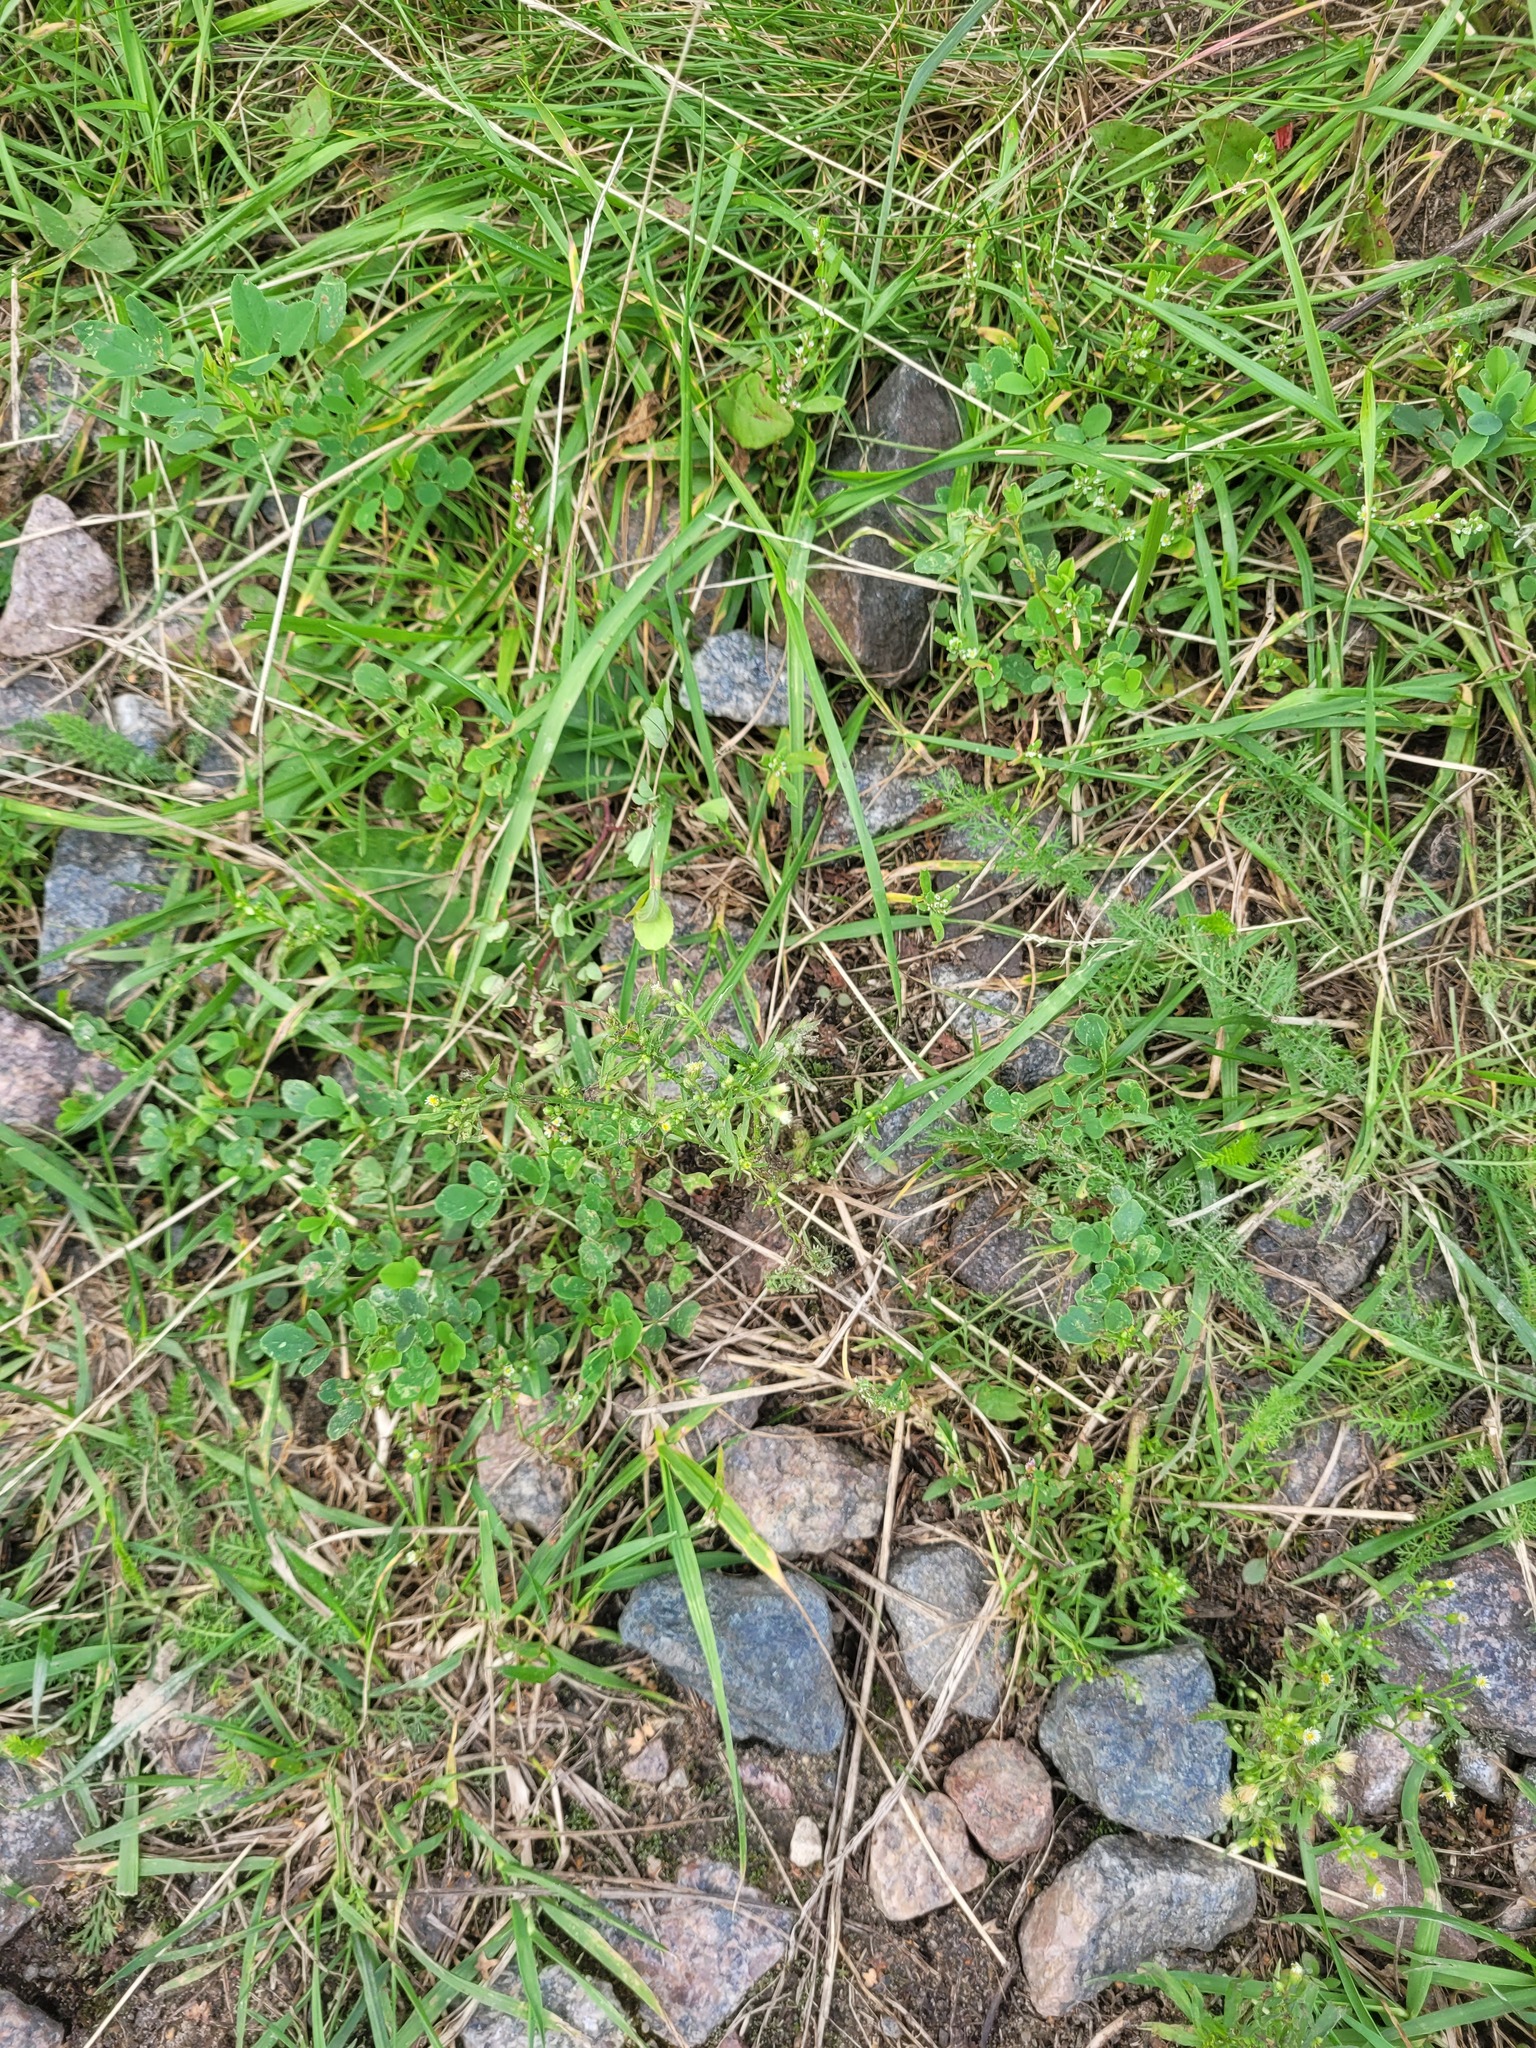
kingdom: Plantae
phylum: Tracheophyta
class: Magnoliopsida
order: Asterales
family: Asteraceae
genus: Erigeron
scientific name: Erigeron canadensis
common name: Canadian fleabane
